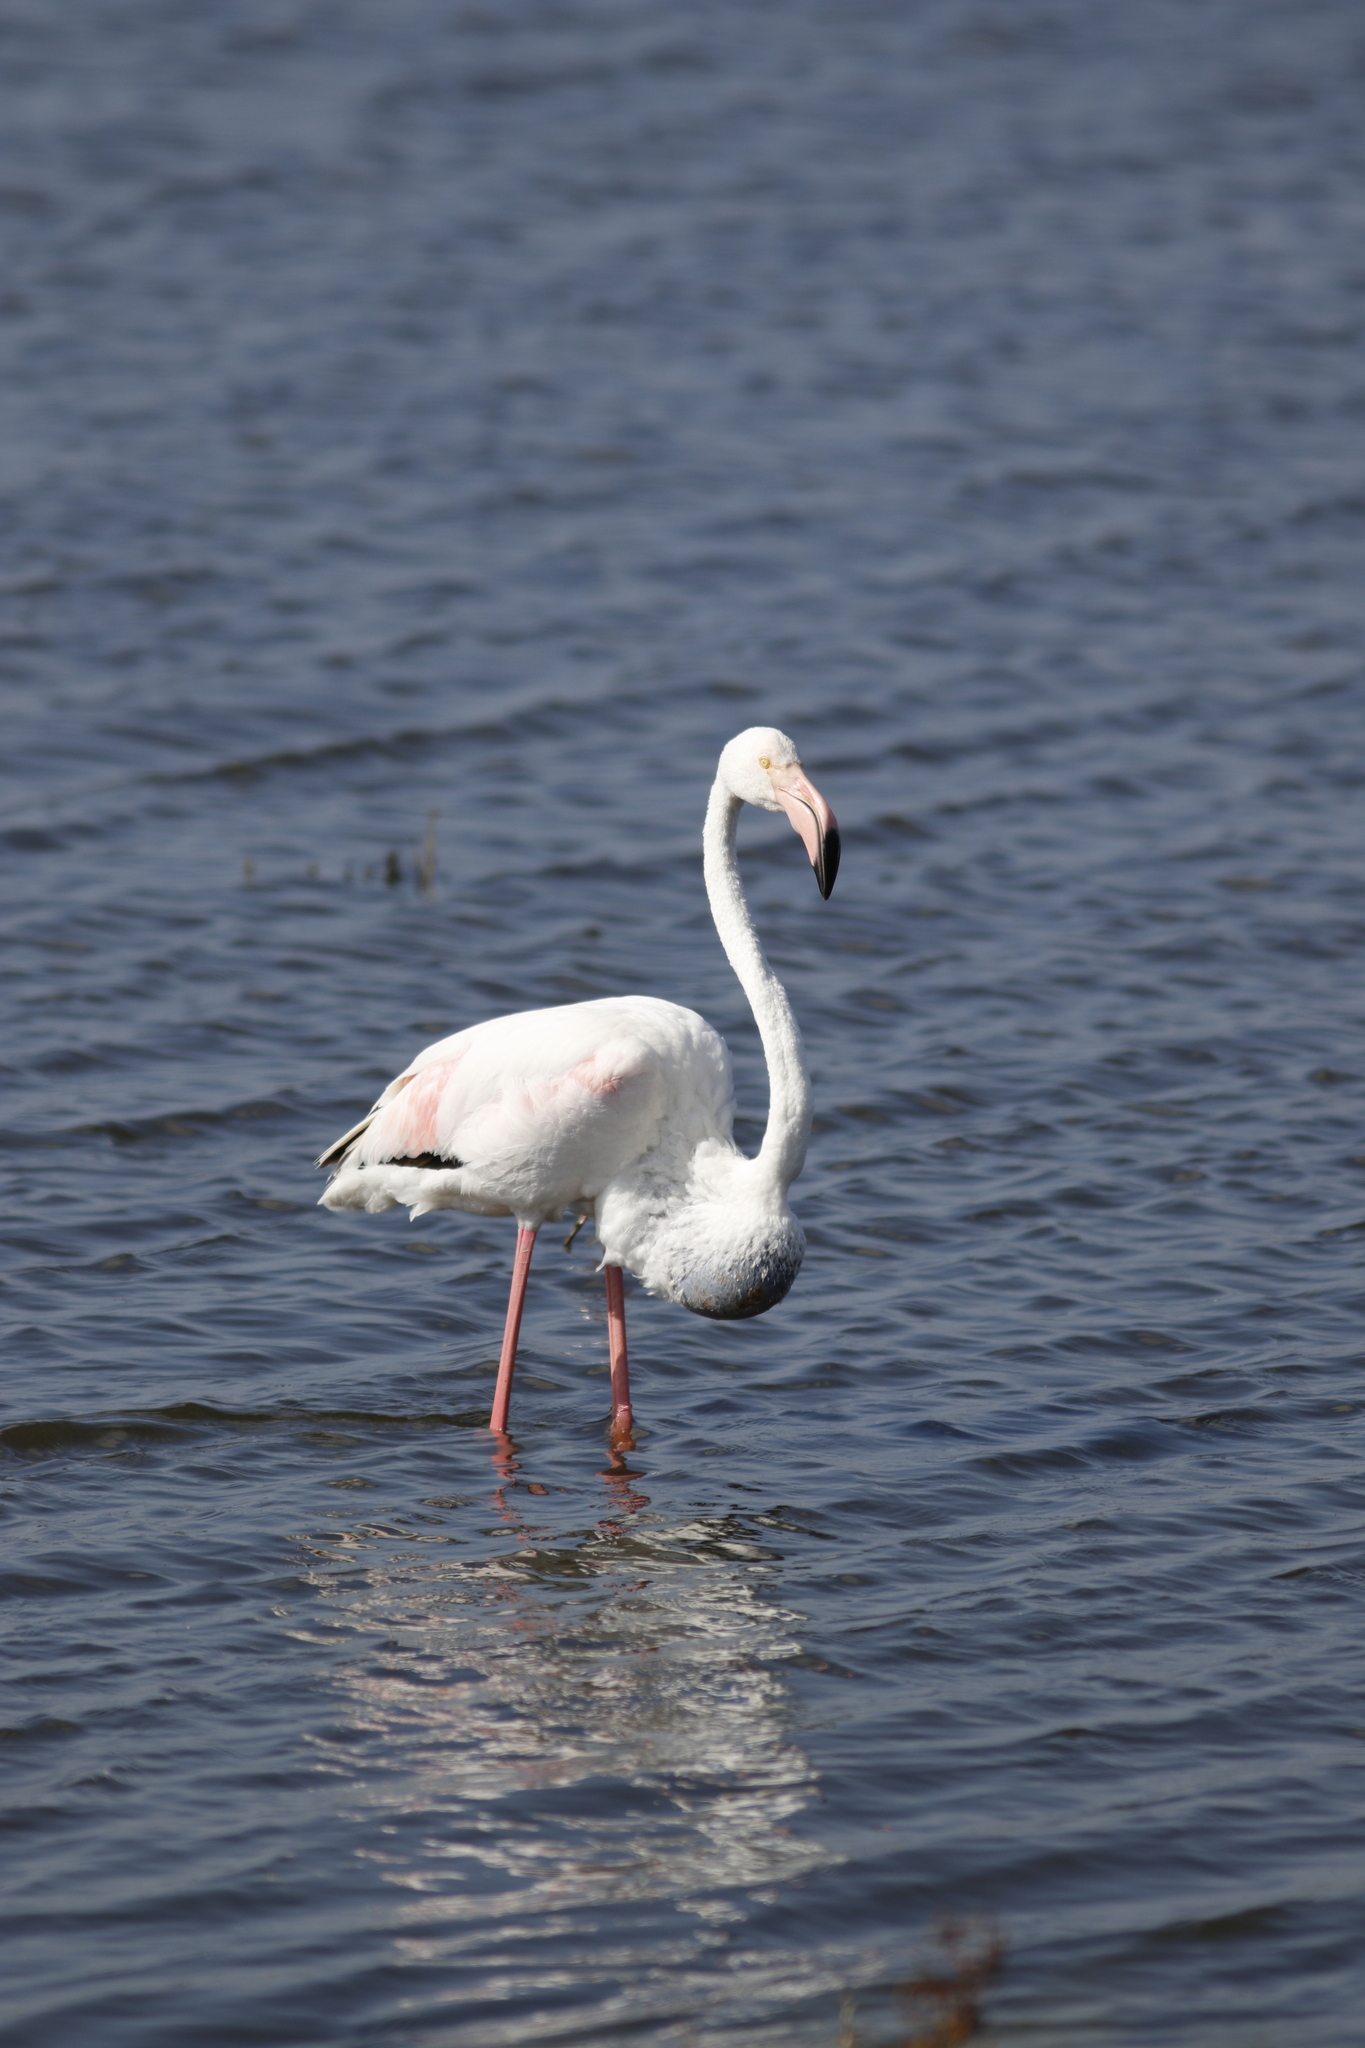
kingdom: Animalia
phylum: Chordata
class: Aves
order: Phoenicopteriformes
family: Phoenicopteridae
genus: Phoenicopterus
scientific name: Phoenicopterus roseus
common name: Greater flamingo
